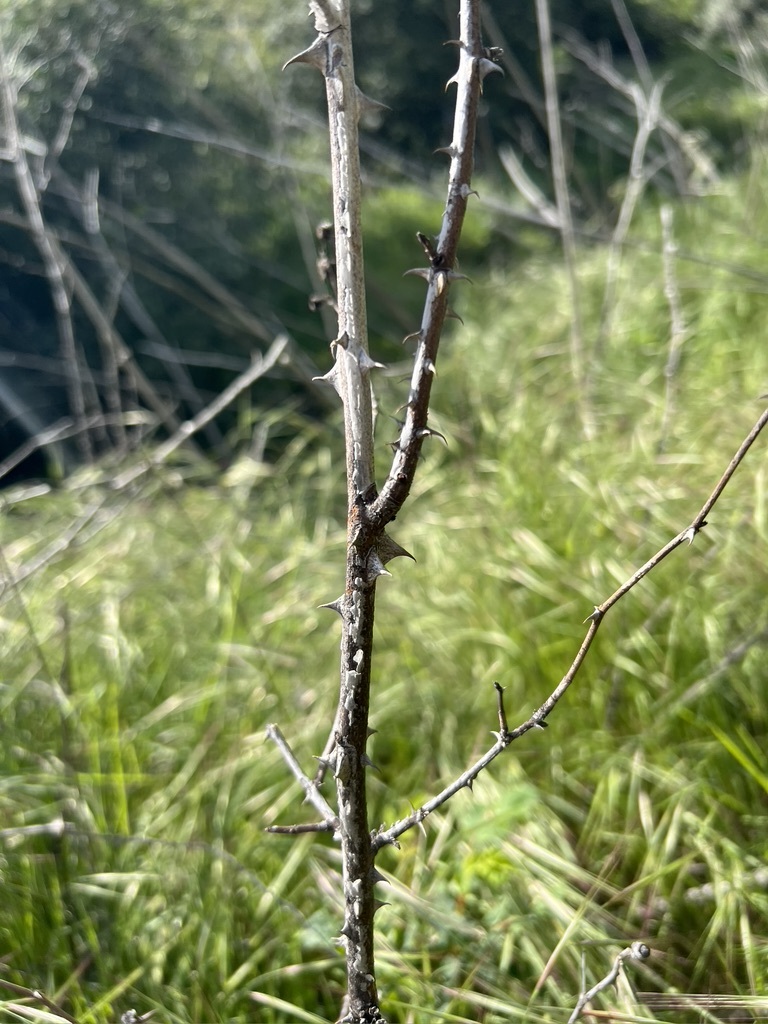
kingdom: Plantae
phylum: Tracheophyta
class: Magnoliopsida
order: Rosales
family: Rosaceae
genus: Rosa
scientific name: Rosa californica
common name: California rose
